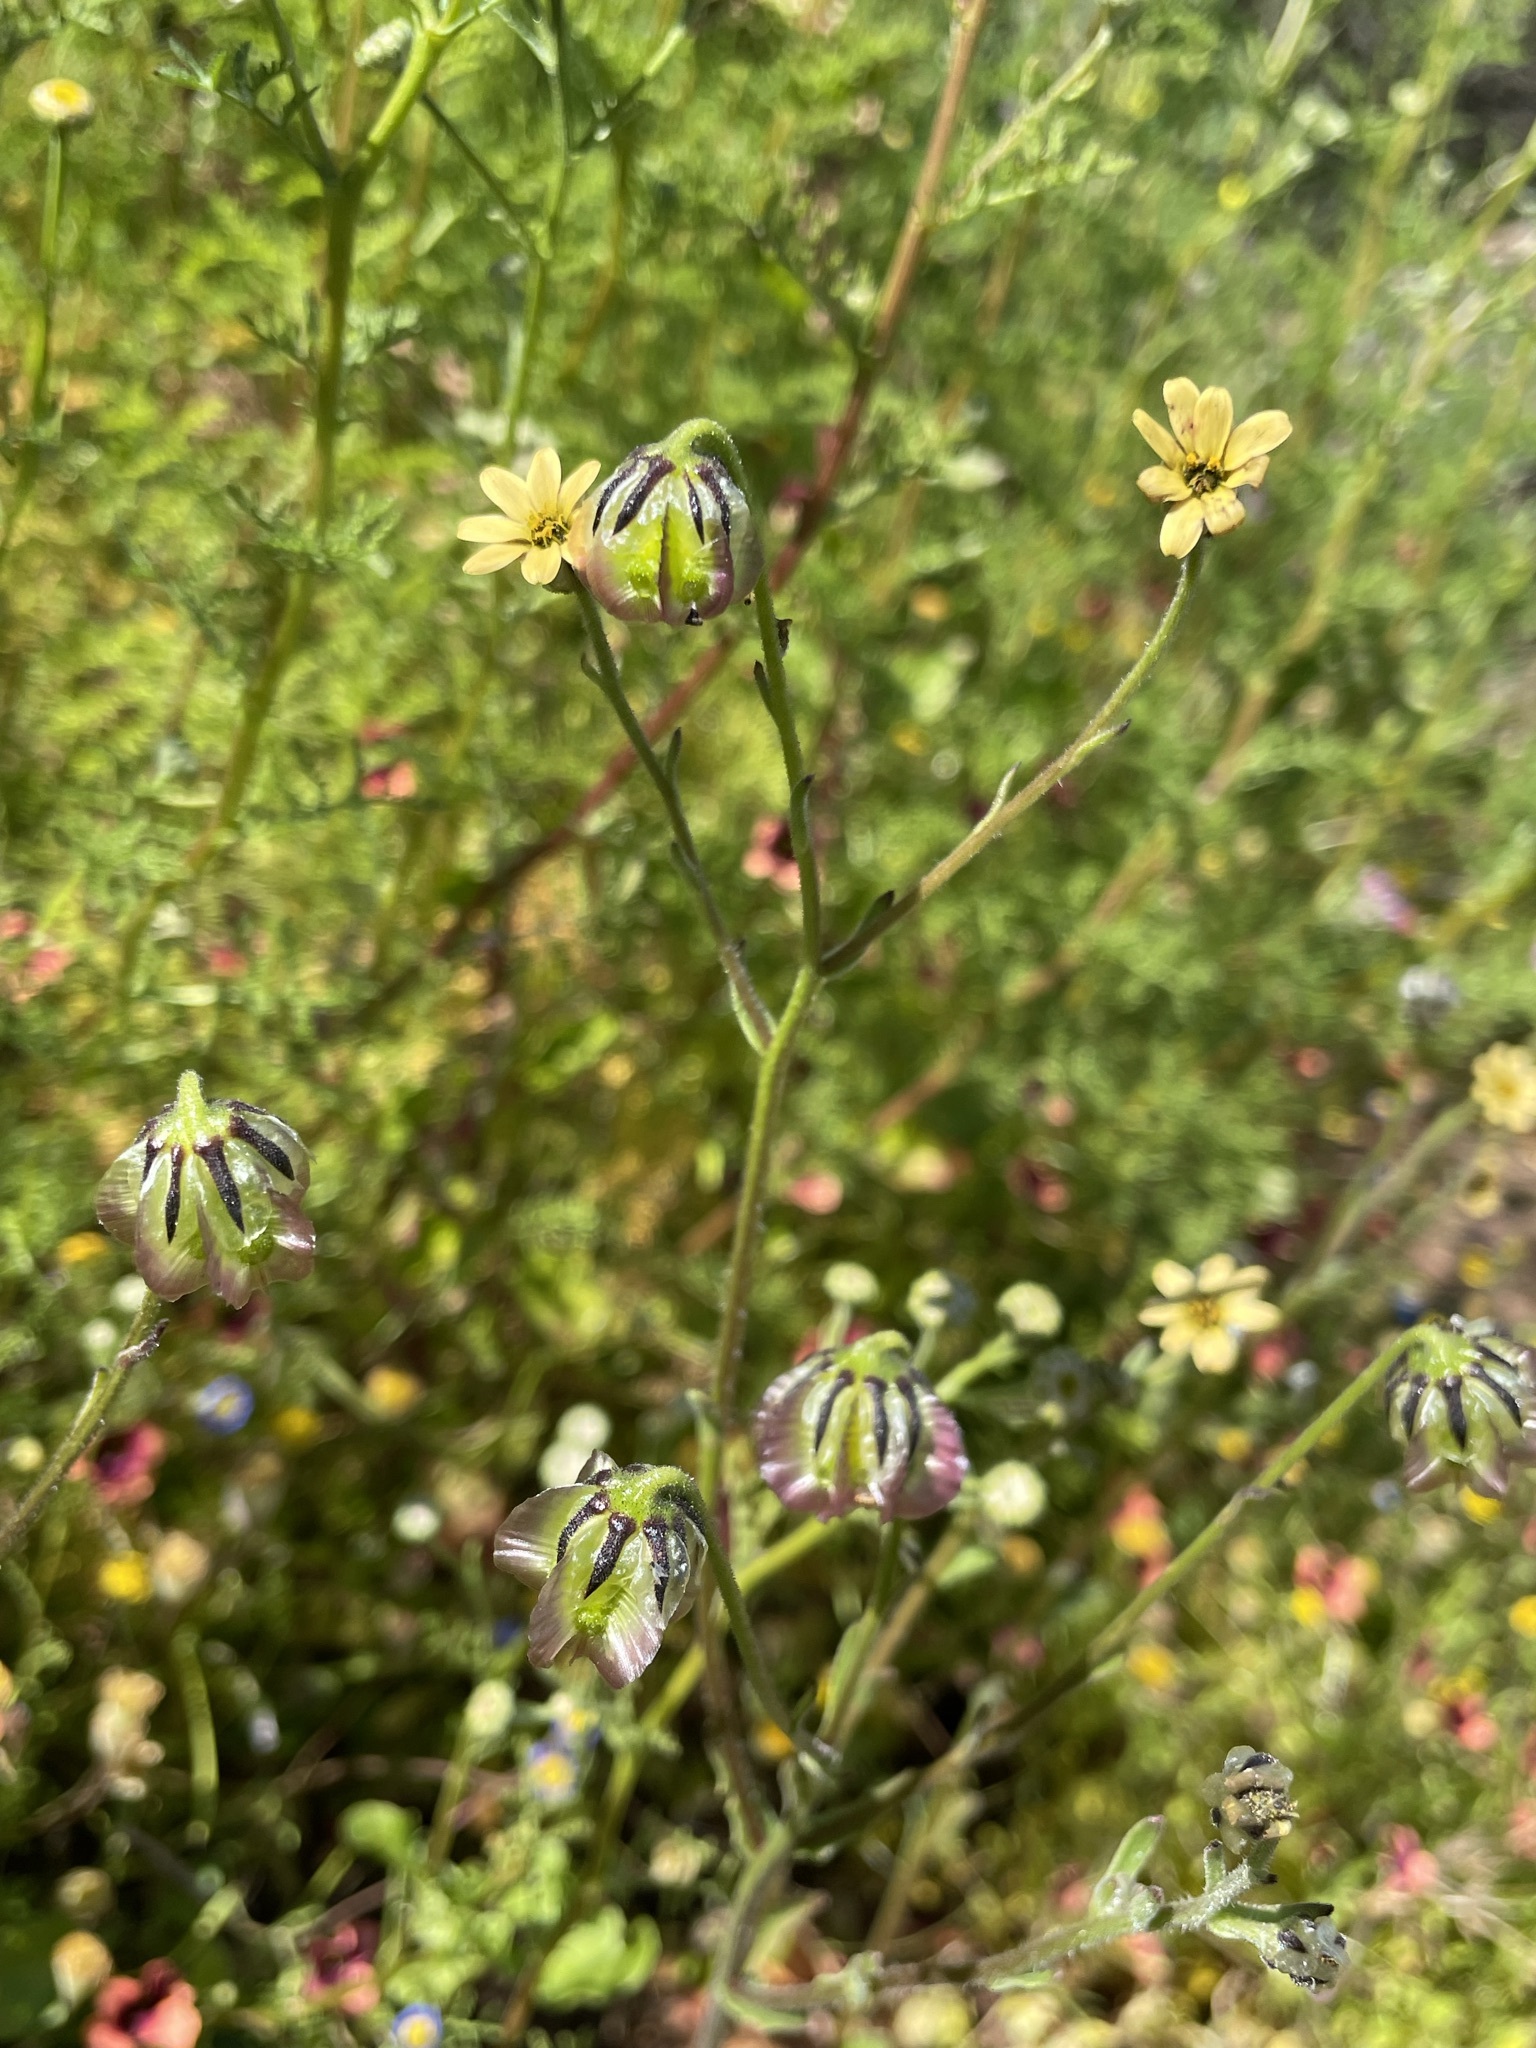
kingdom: Plantae
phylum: Tracheophyta
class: Magnoliopsida
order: Asterales
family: Asteraceae
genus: Osteospermum
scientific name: Osteospermum monstrosum
